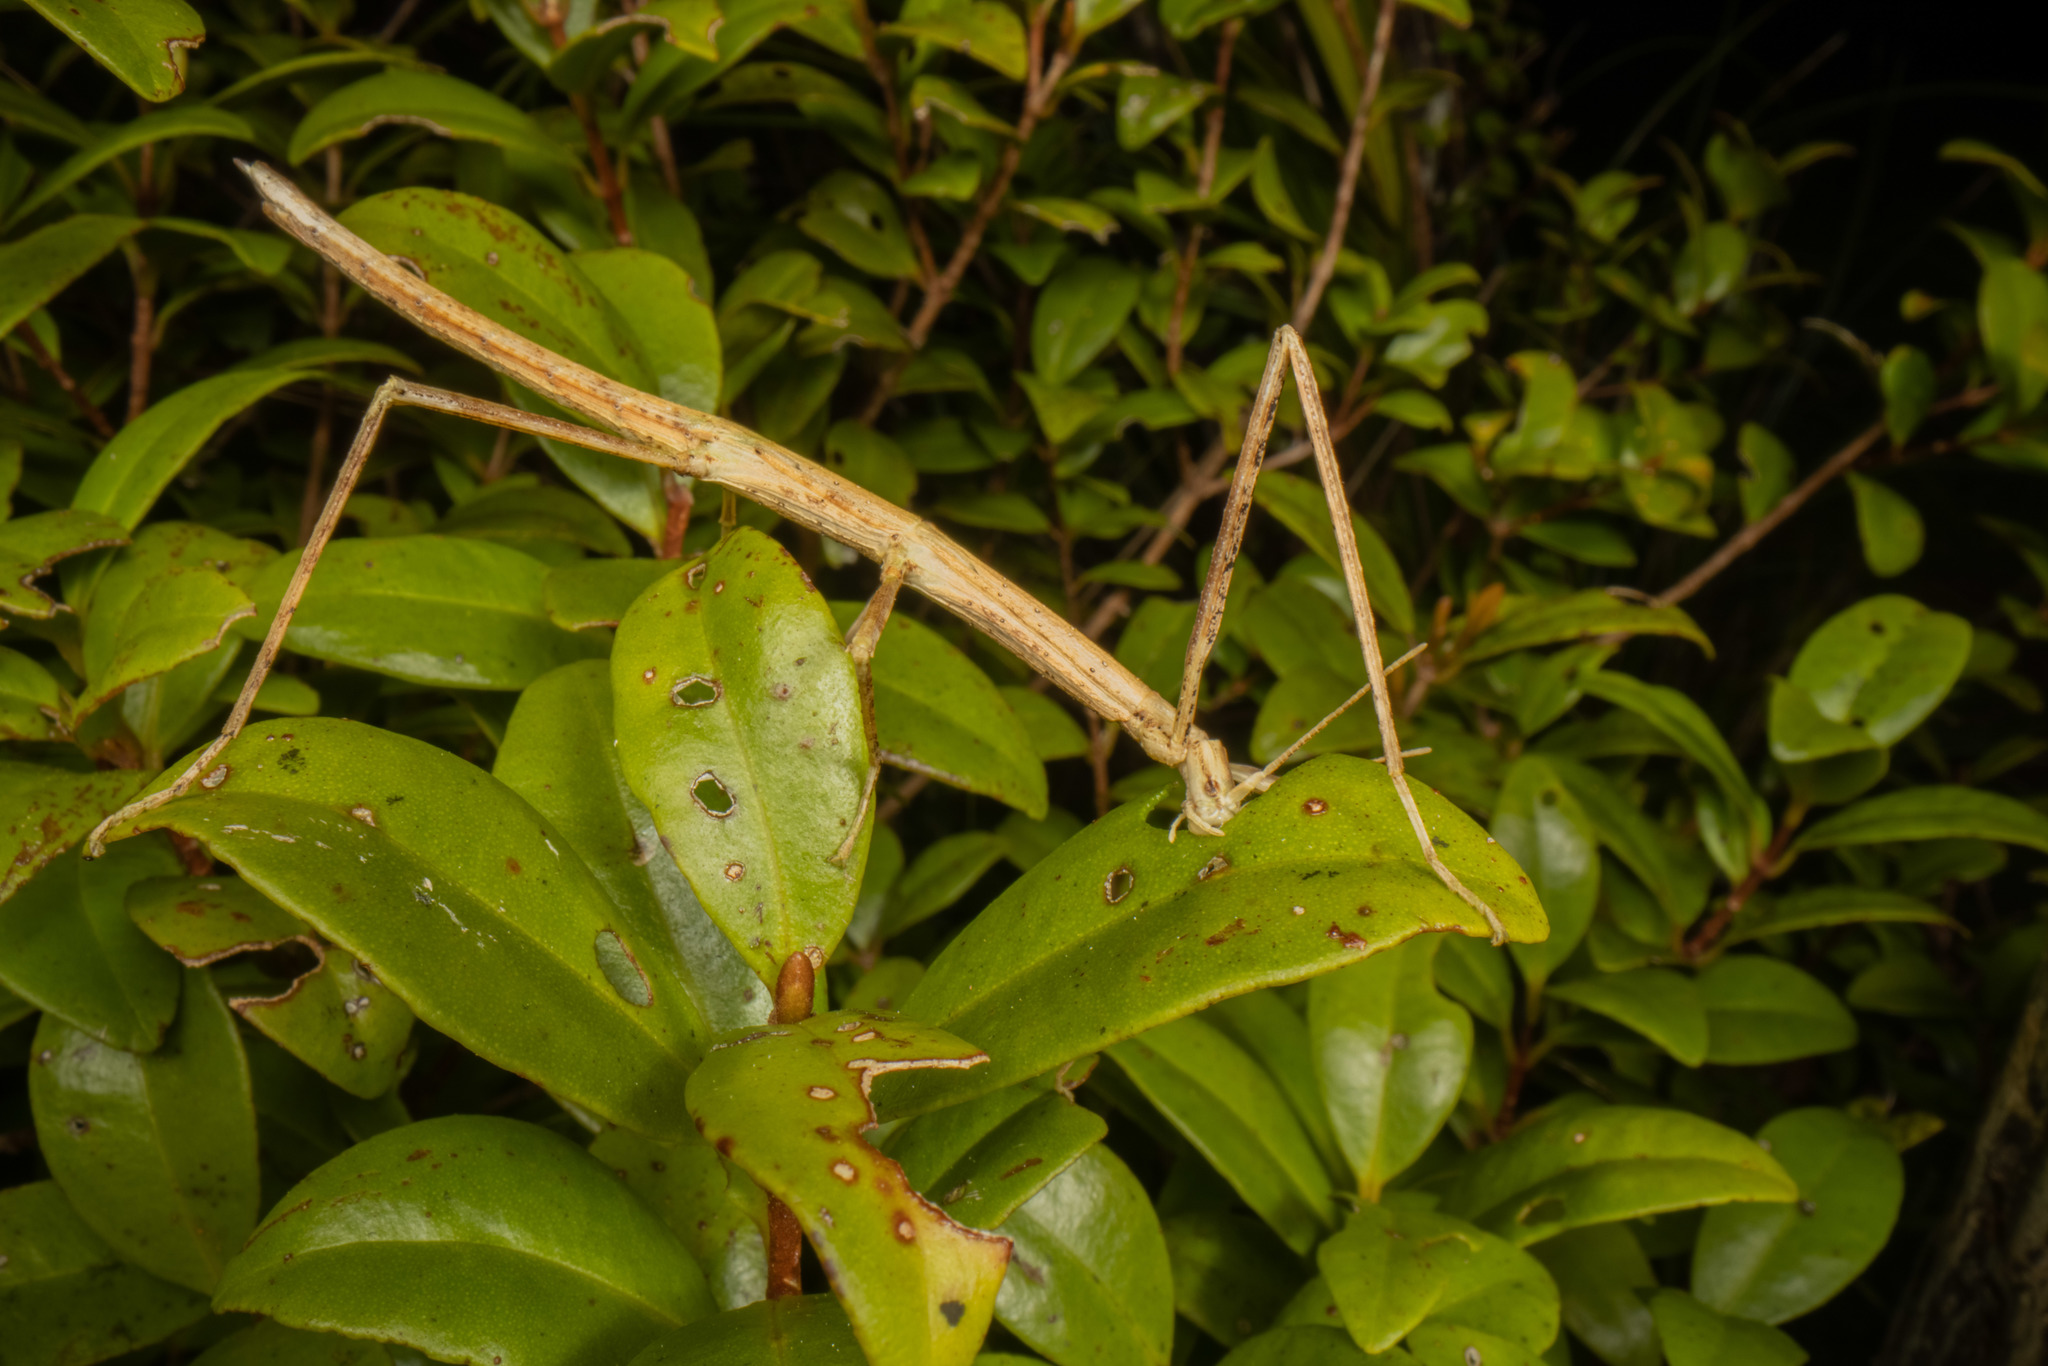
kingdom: Animalia
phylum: Arthropoda
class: Insecta
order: Phasmida
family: Phasmatidae
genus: Asteliaphasma
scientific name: Asteliaphasma jucundum
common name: The kauri forest stick insect
